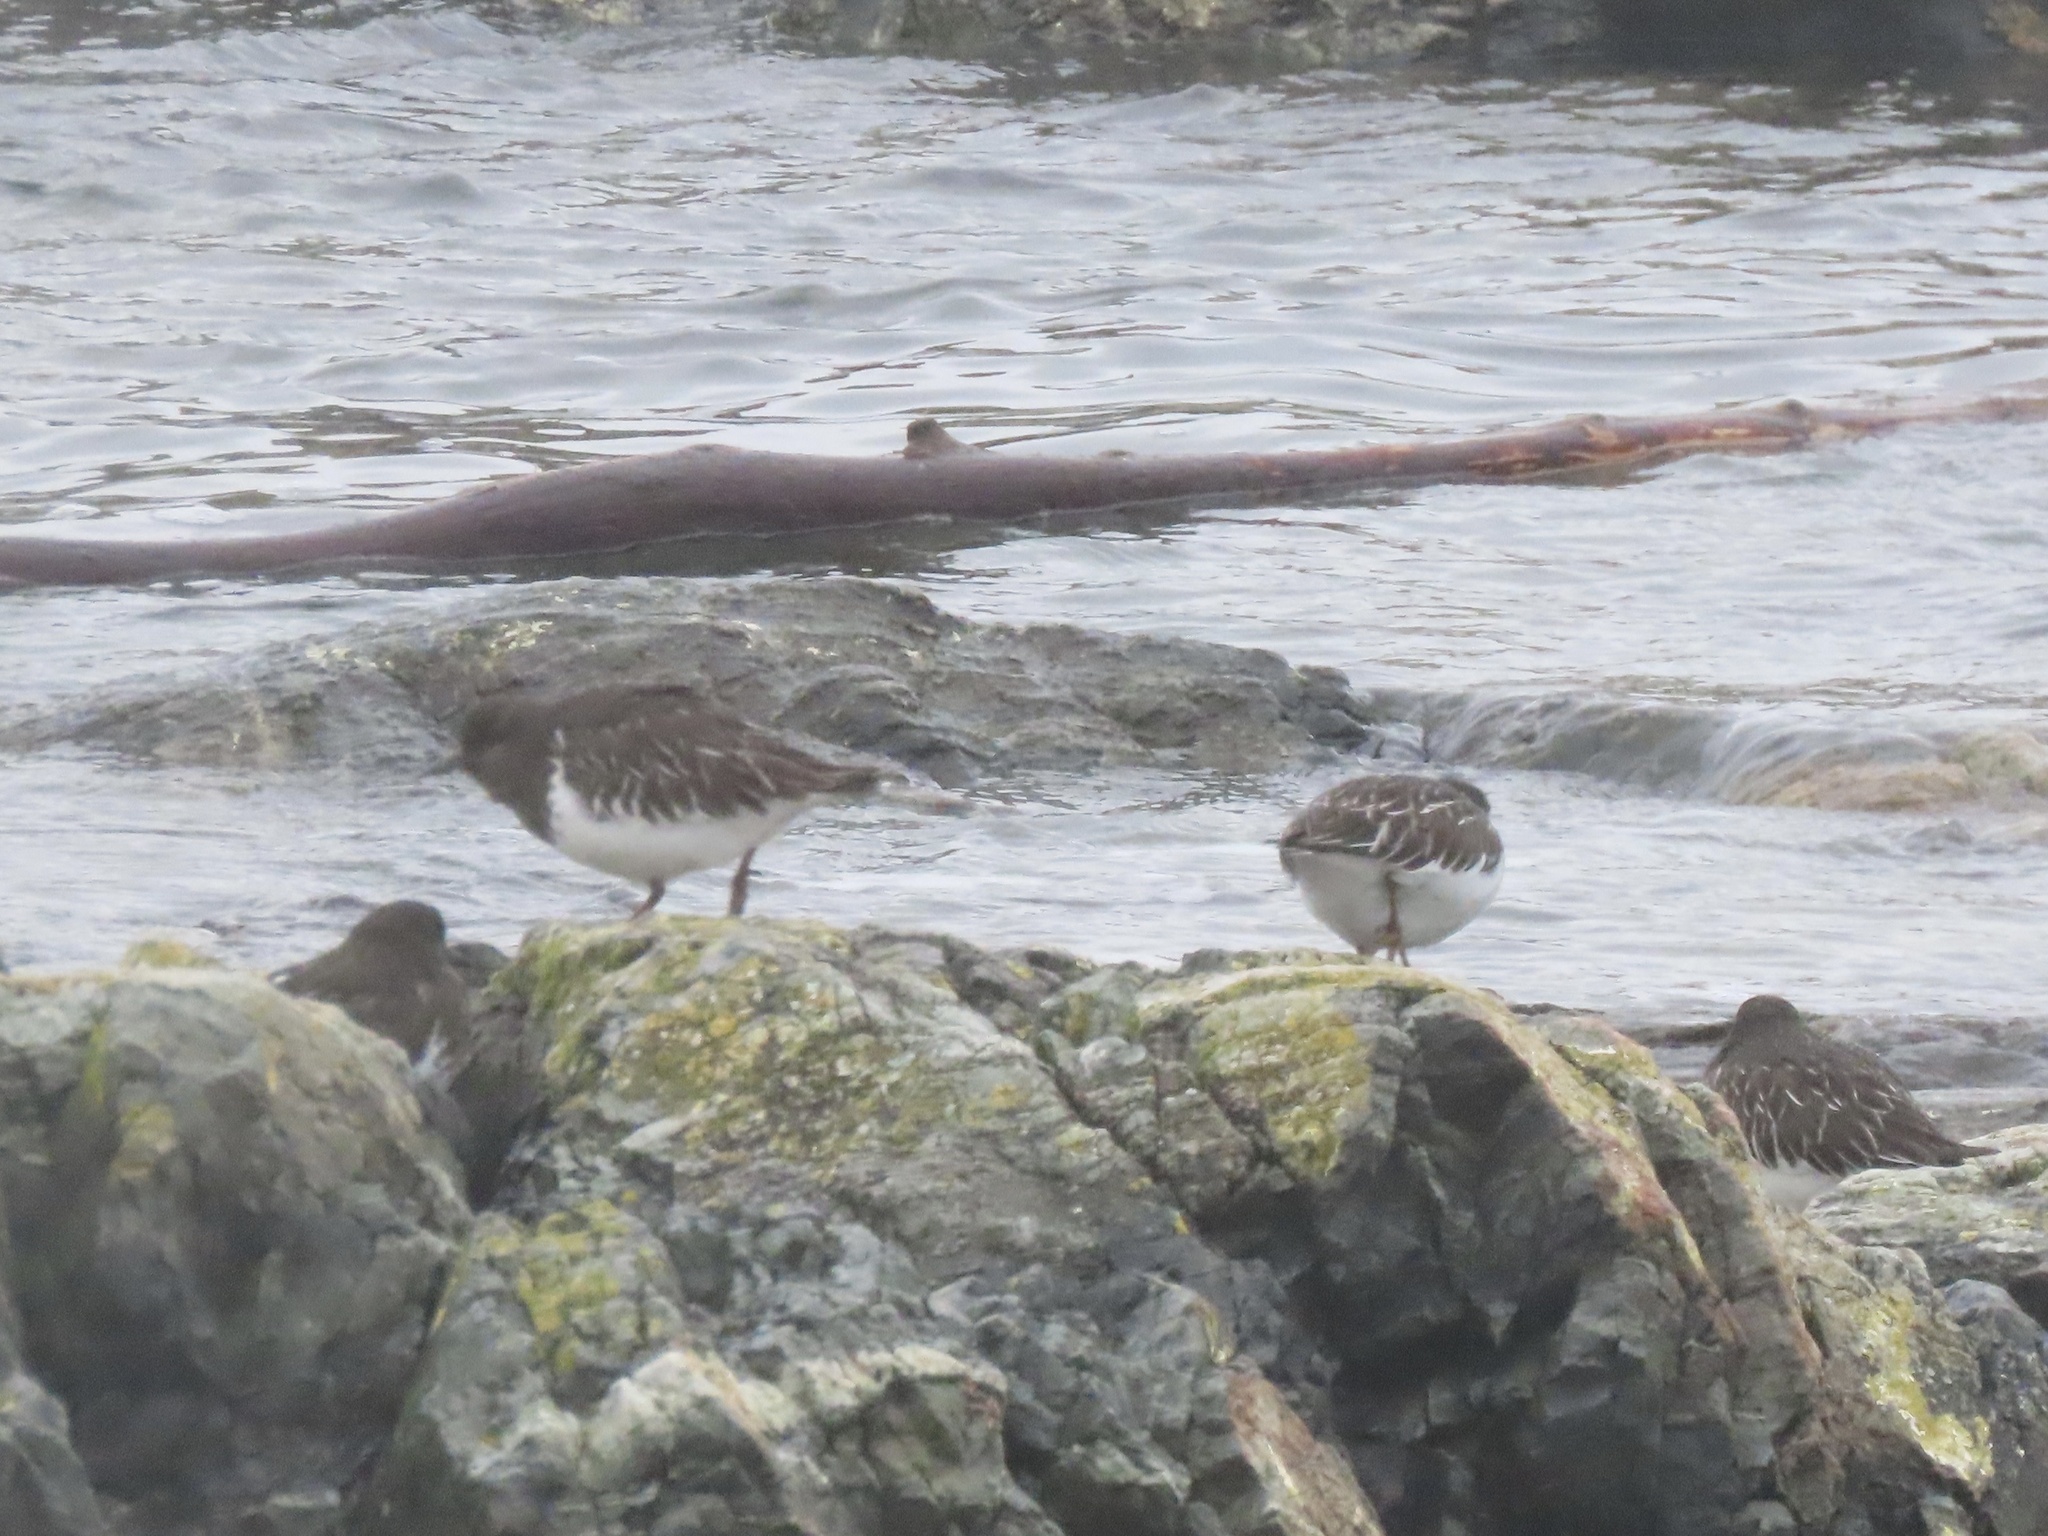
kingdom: Animalia
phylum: Chordata
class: Aves
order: Charadriiformes
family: Scolopacidae
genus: Arenaria
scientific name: Arenaria melanocephala
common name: Black turnstone
